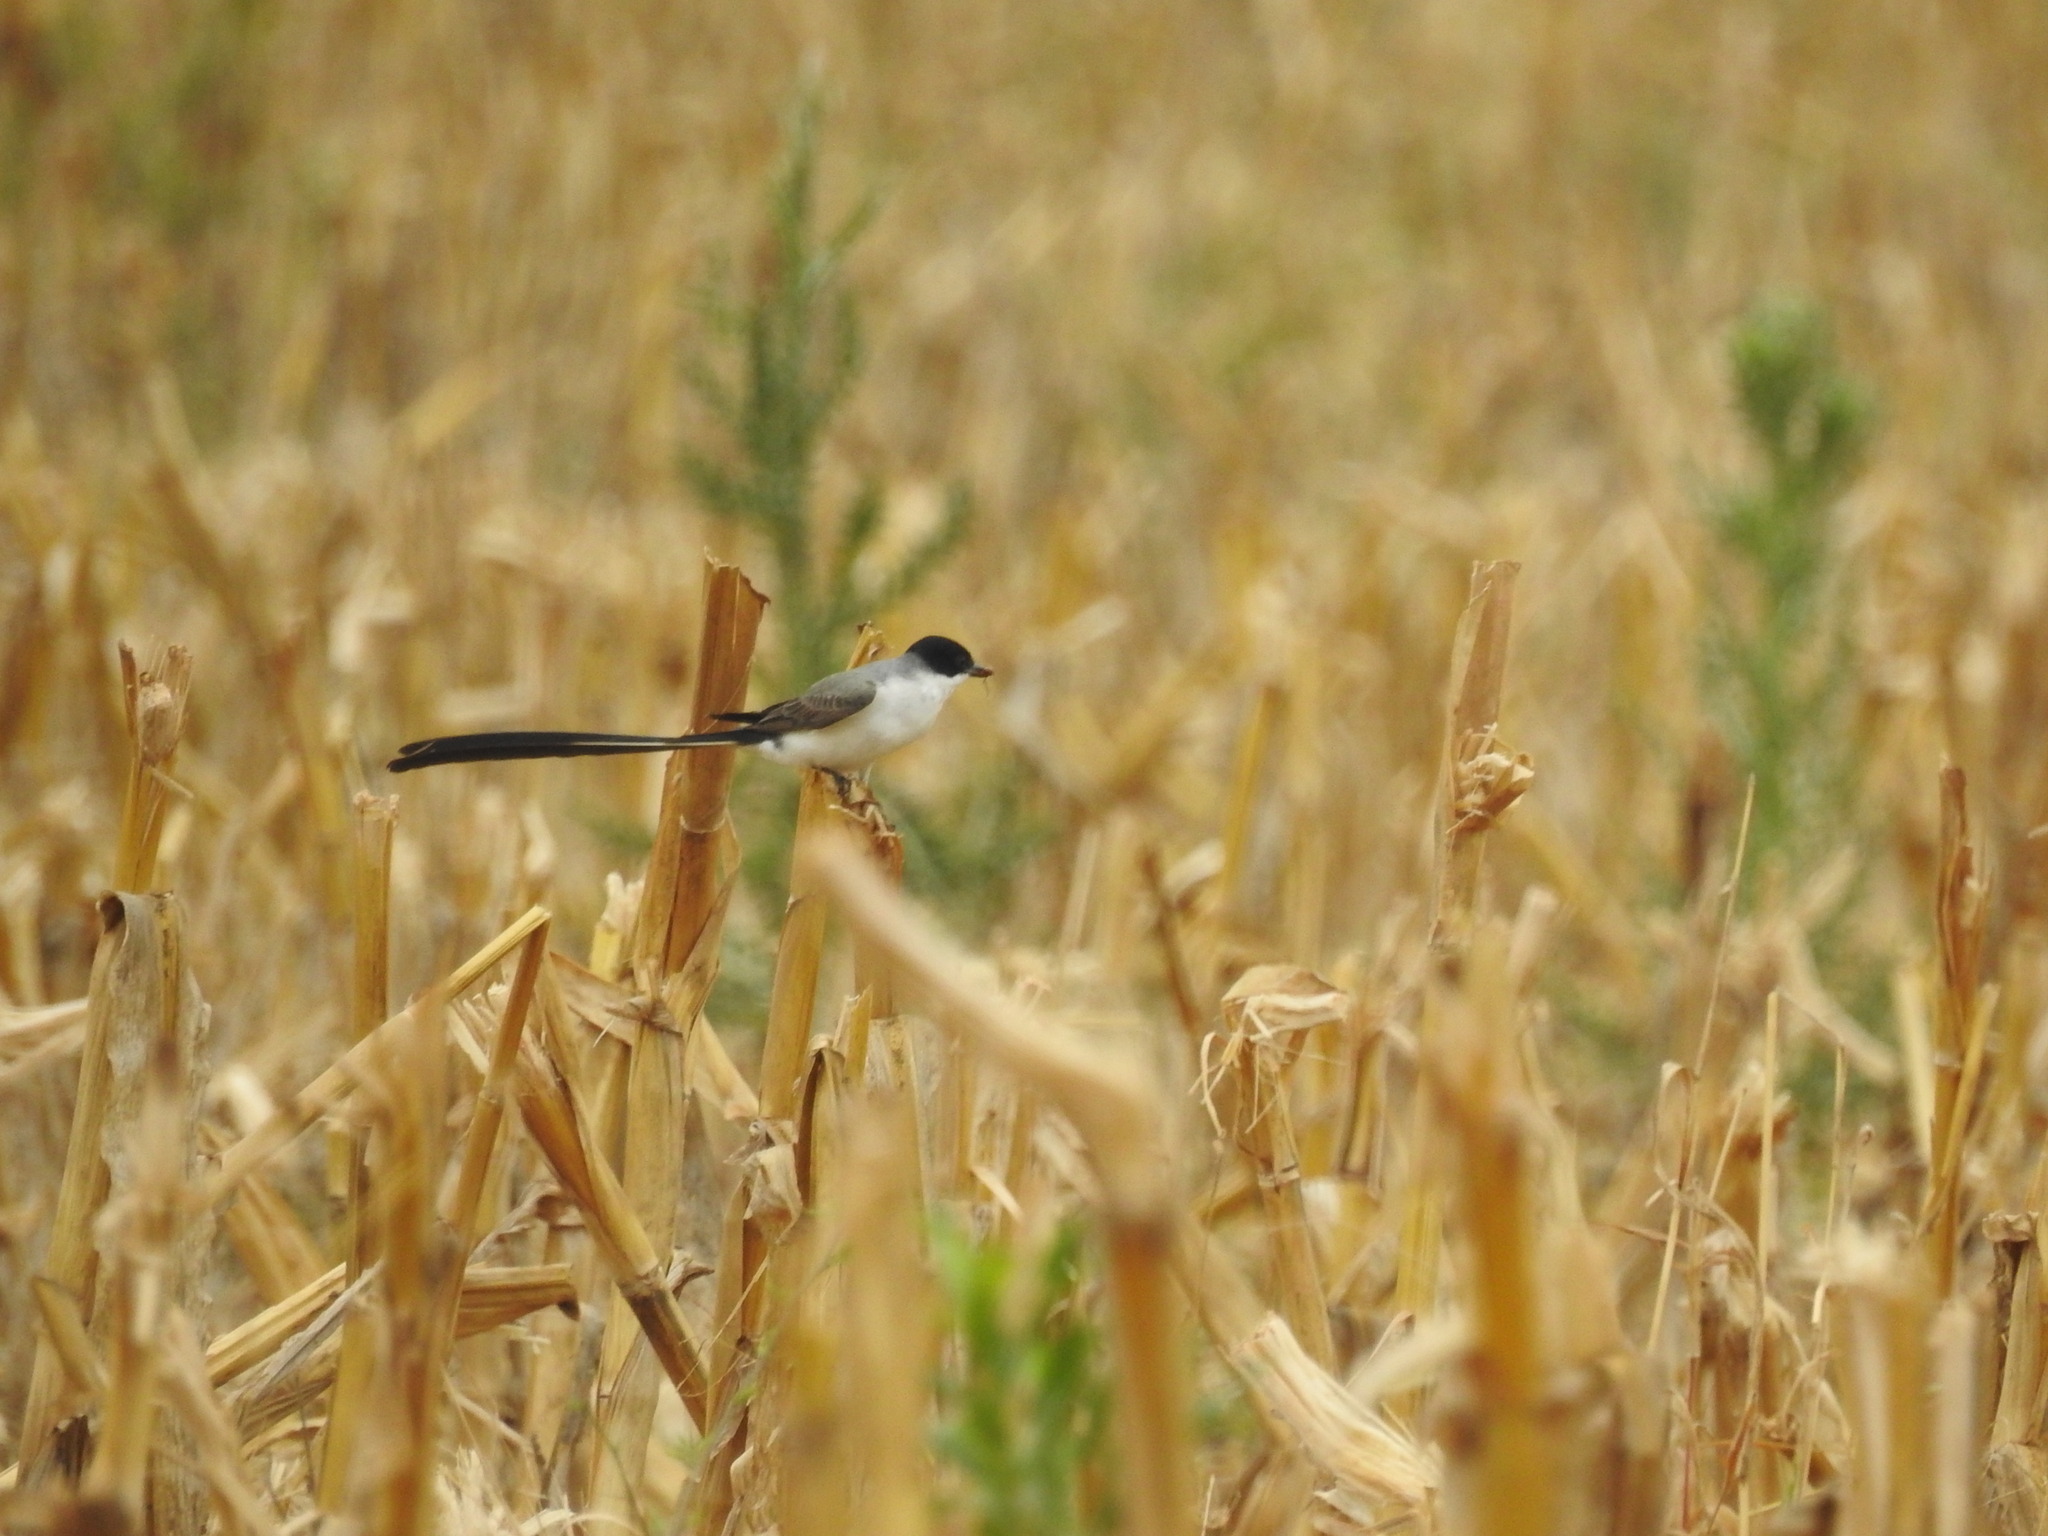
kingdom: Animalia
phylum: Chordata
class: Aves
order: Passeriformes
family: Tyrannidae
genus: Tyrannus
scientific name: Tyrannus savana
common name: Fork-tailed flycatcher
